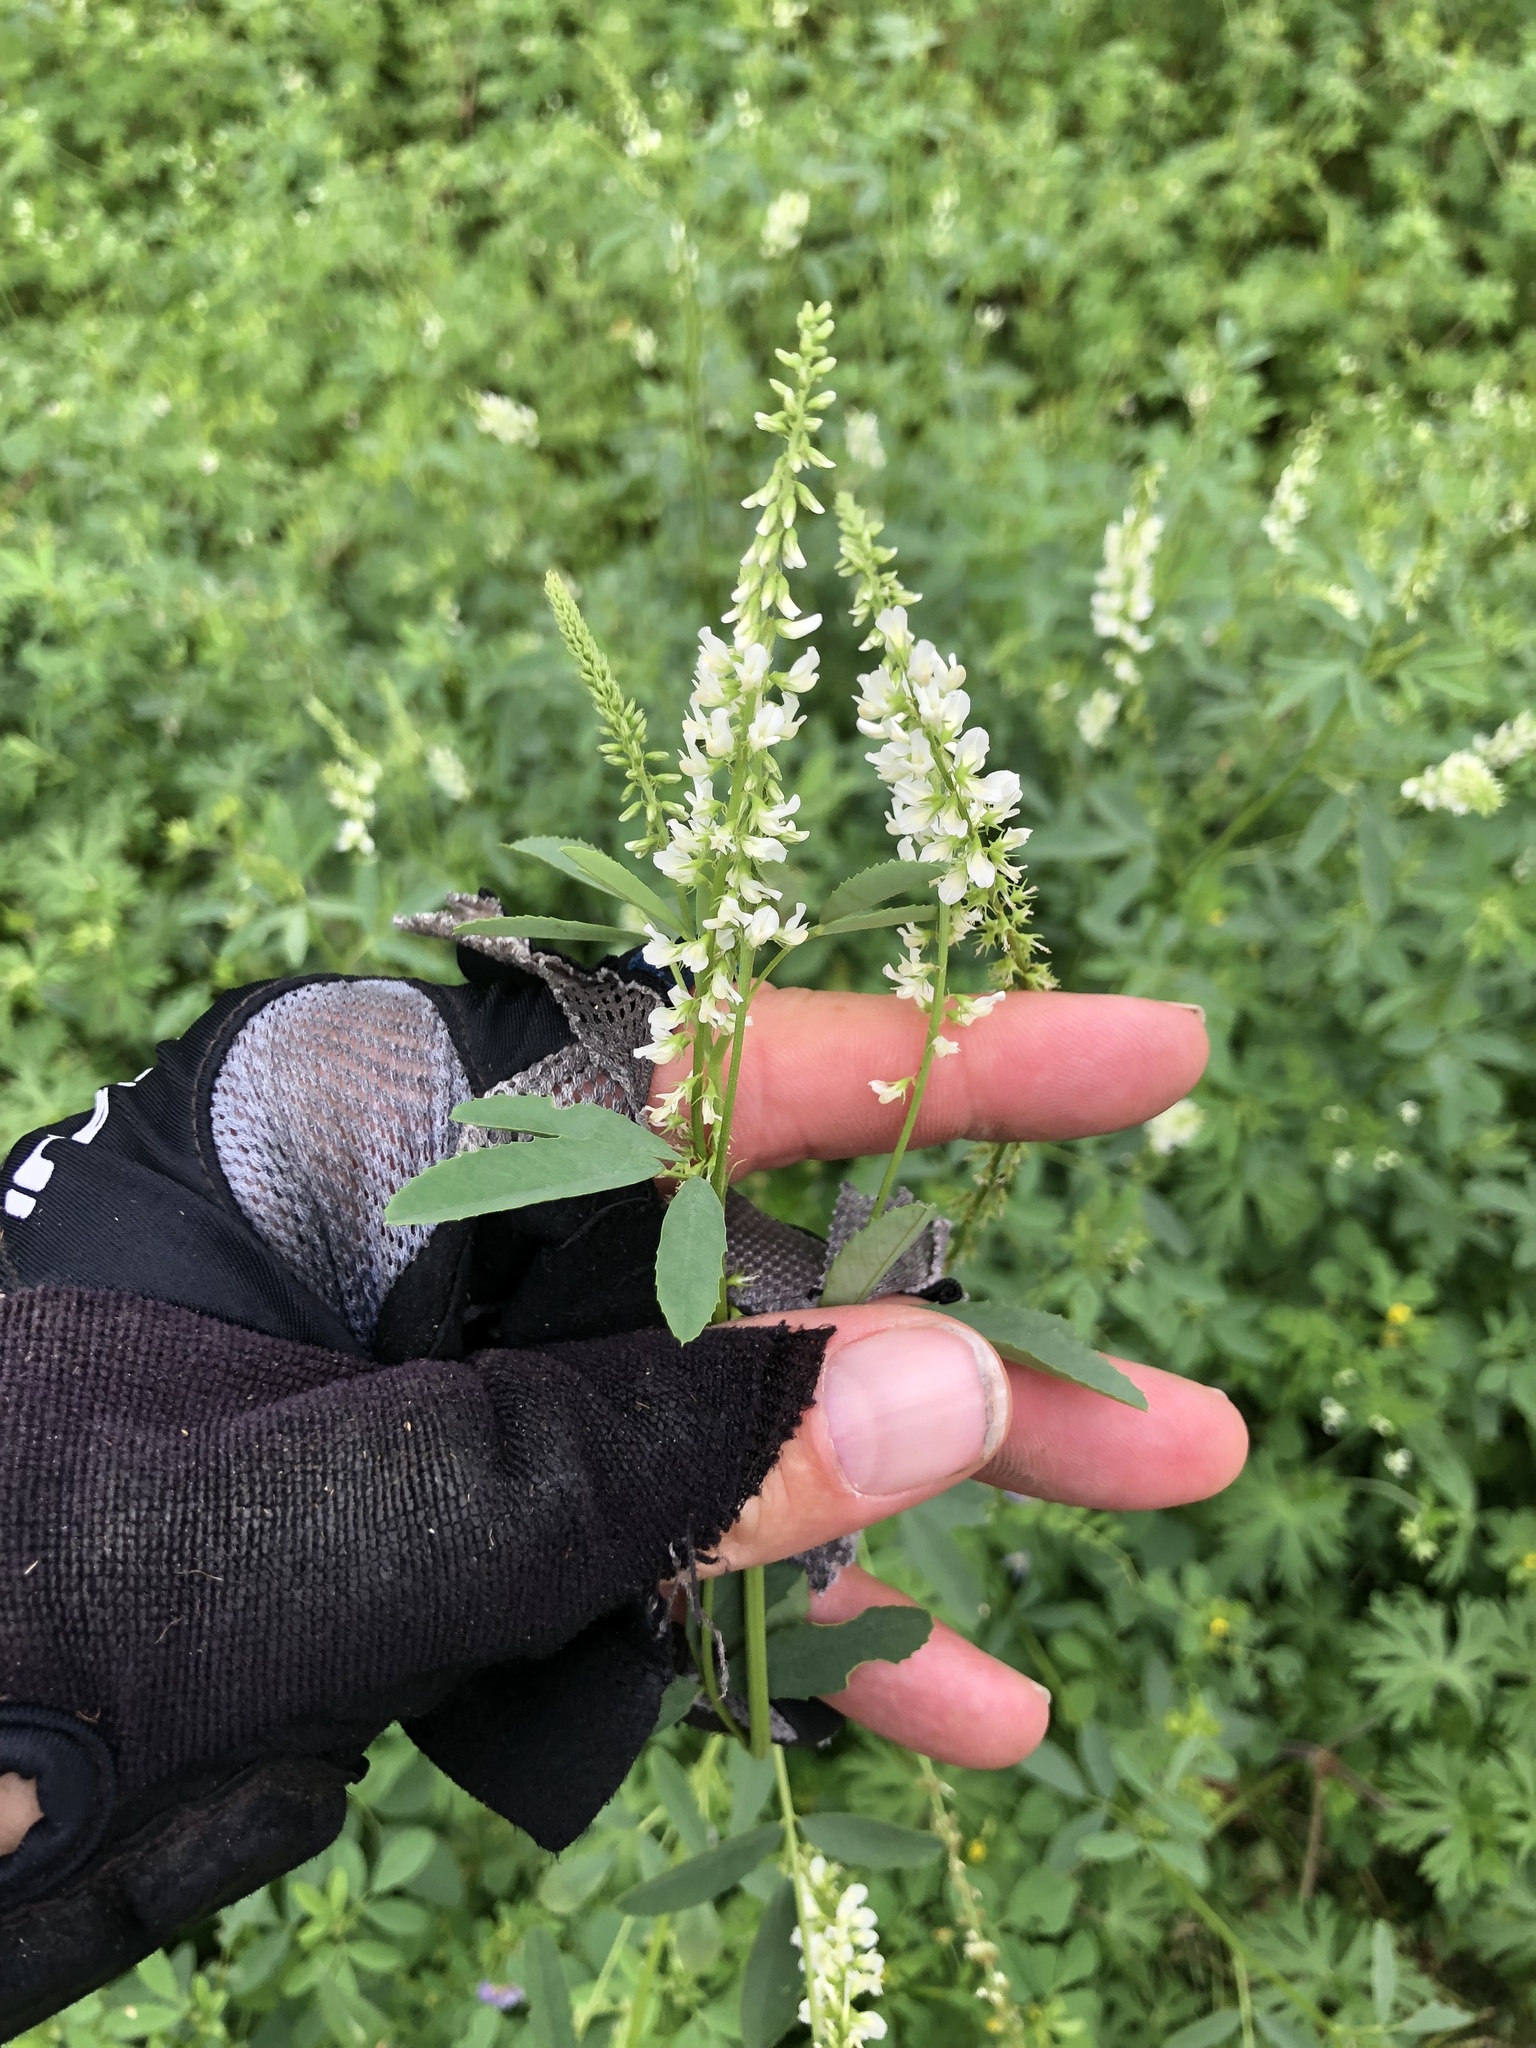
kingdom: Plantae
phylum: Tracheophyta
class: Magnoliopsida
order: Fabales
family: Fabaceae
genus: Melilotus
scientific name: Melilotus albus
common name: White melilot
